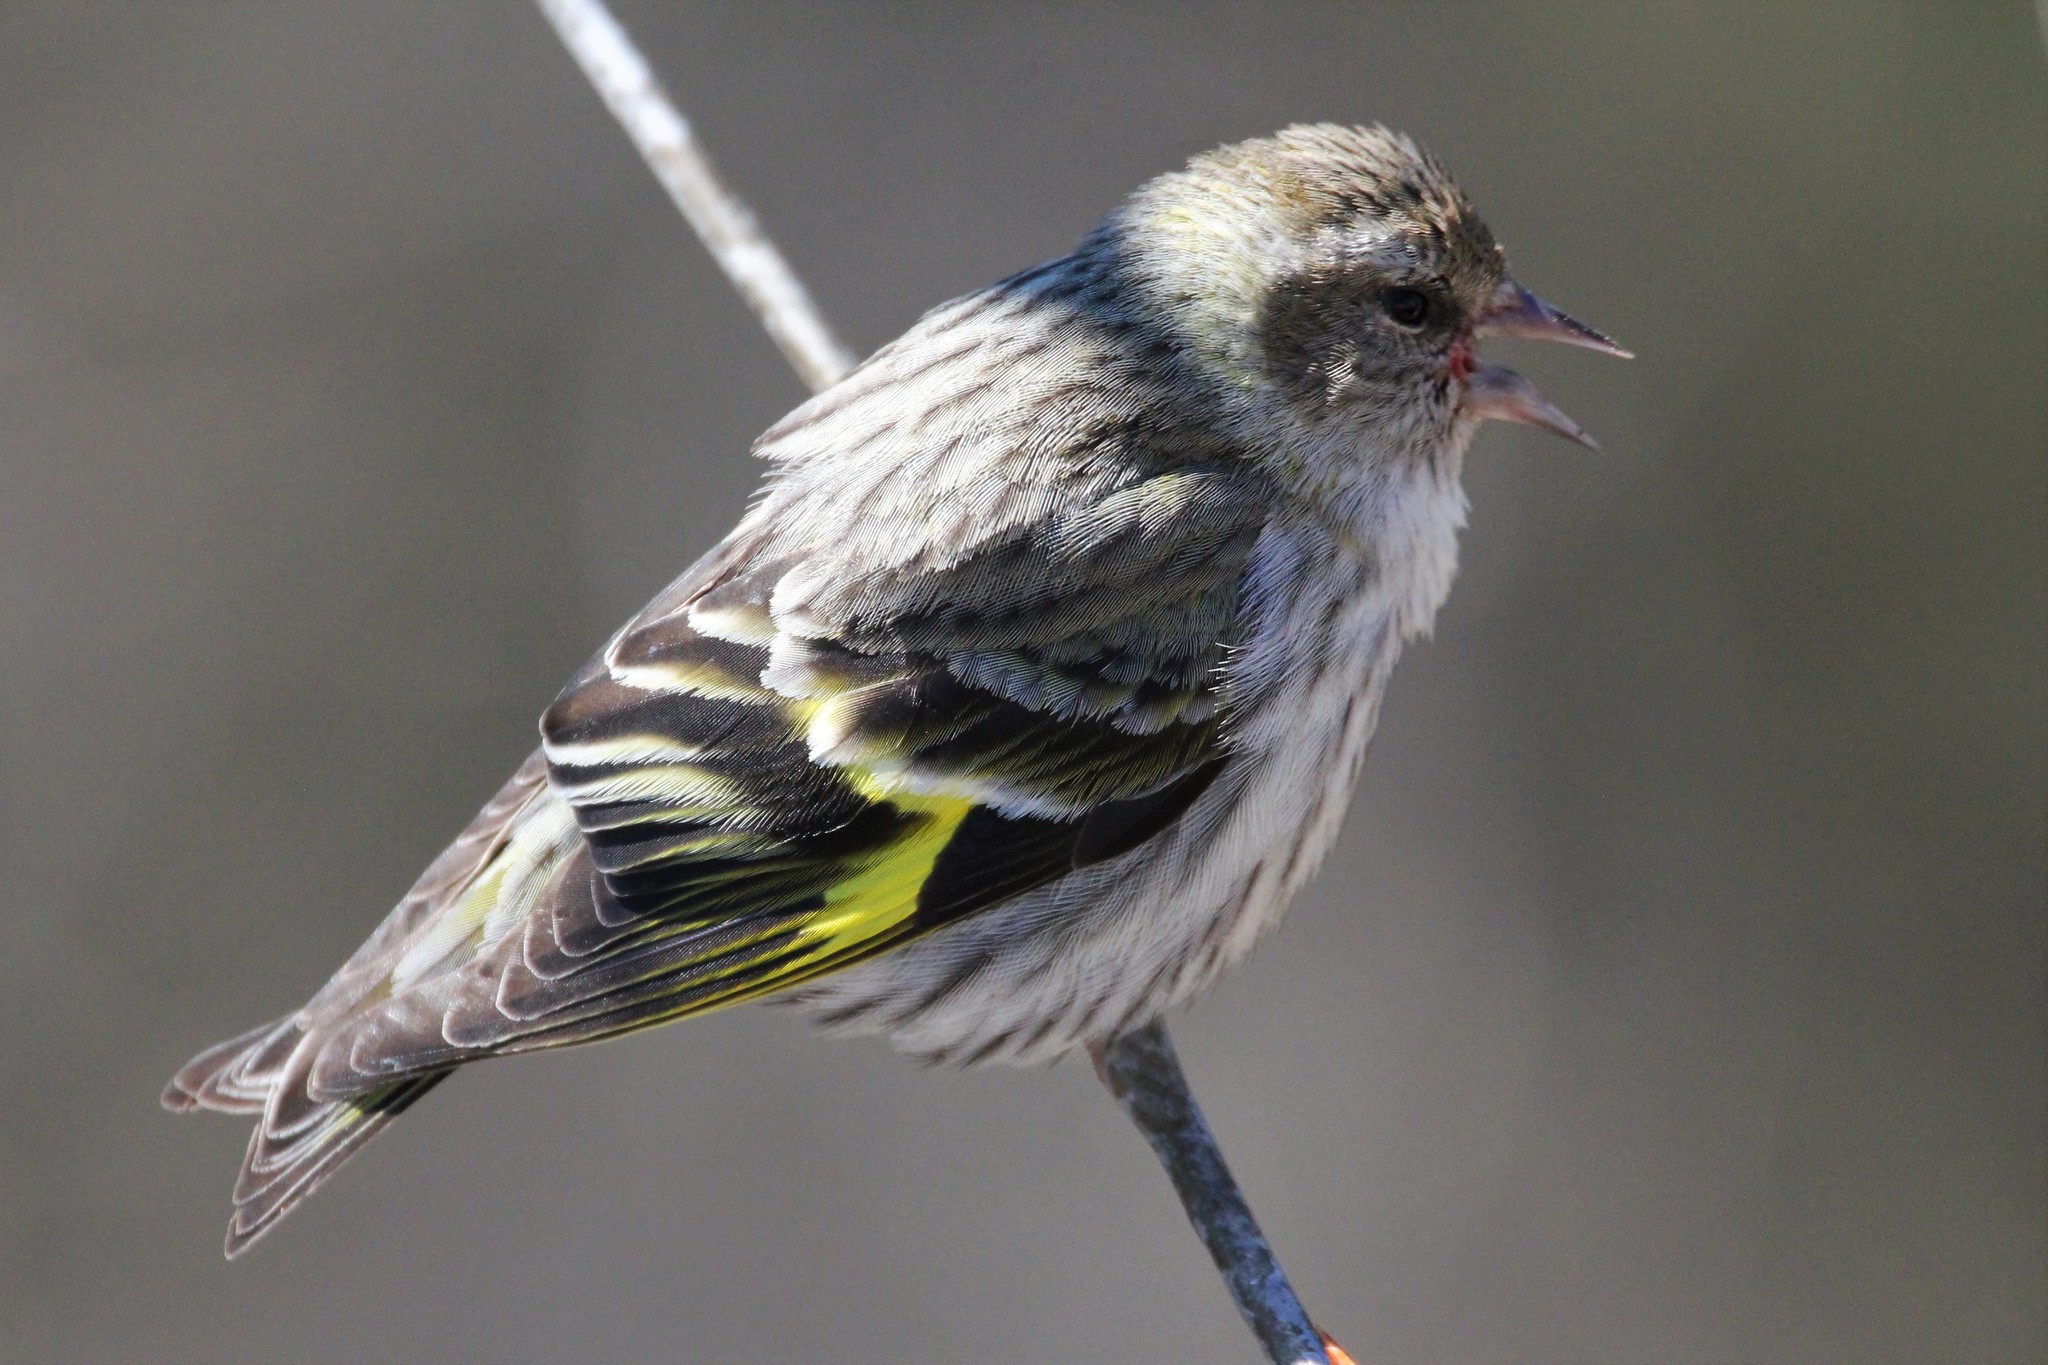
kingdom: Animalia
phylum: Chordata
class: Aves
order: Passeriformes
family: Fringillidae
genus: Spinus
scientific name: Spinus pinus
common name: Pine siskin
